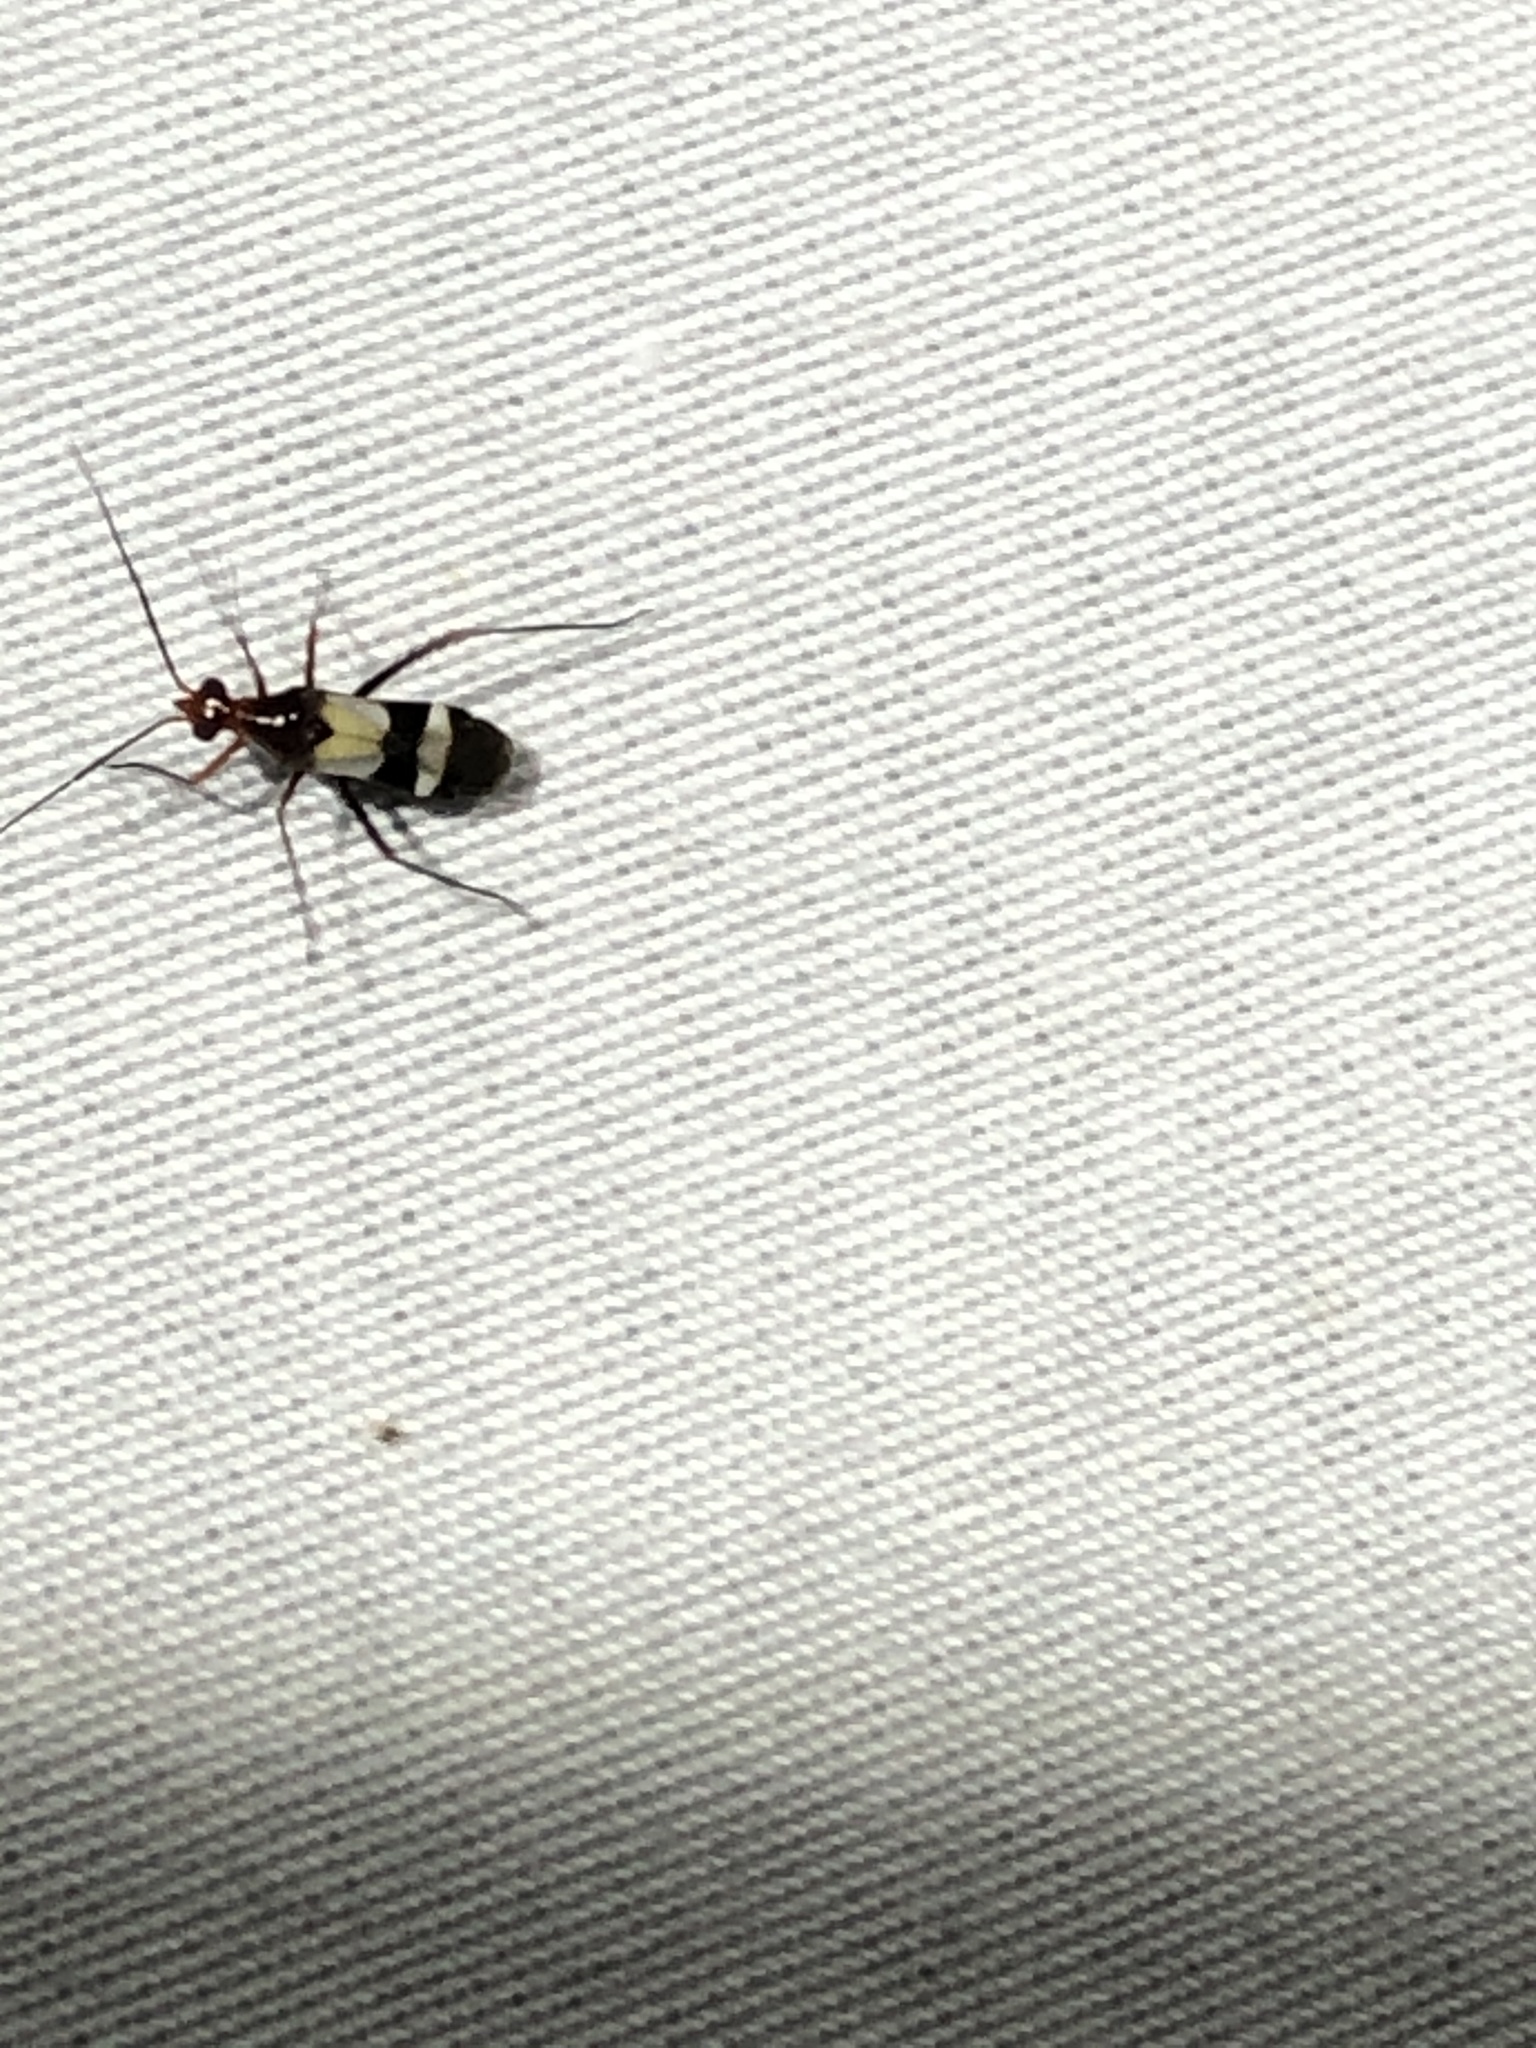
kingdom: Animalia
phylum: Arthropoda
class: Insecta
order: Hemiptera
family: Miridae
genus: Coquillettia
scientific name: Coquillettia lactea
